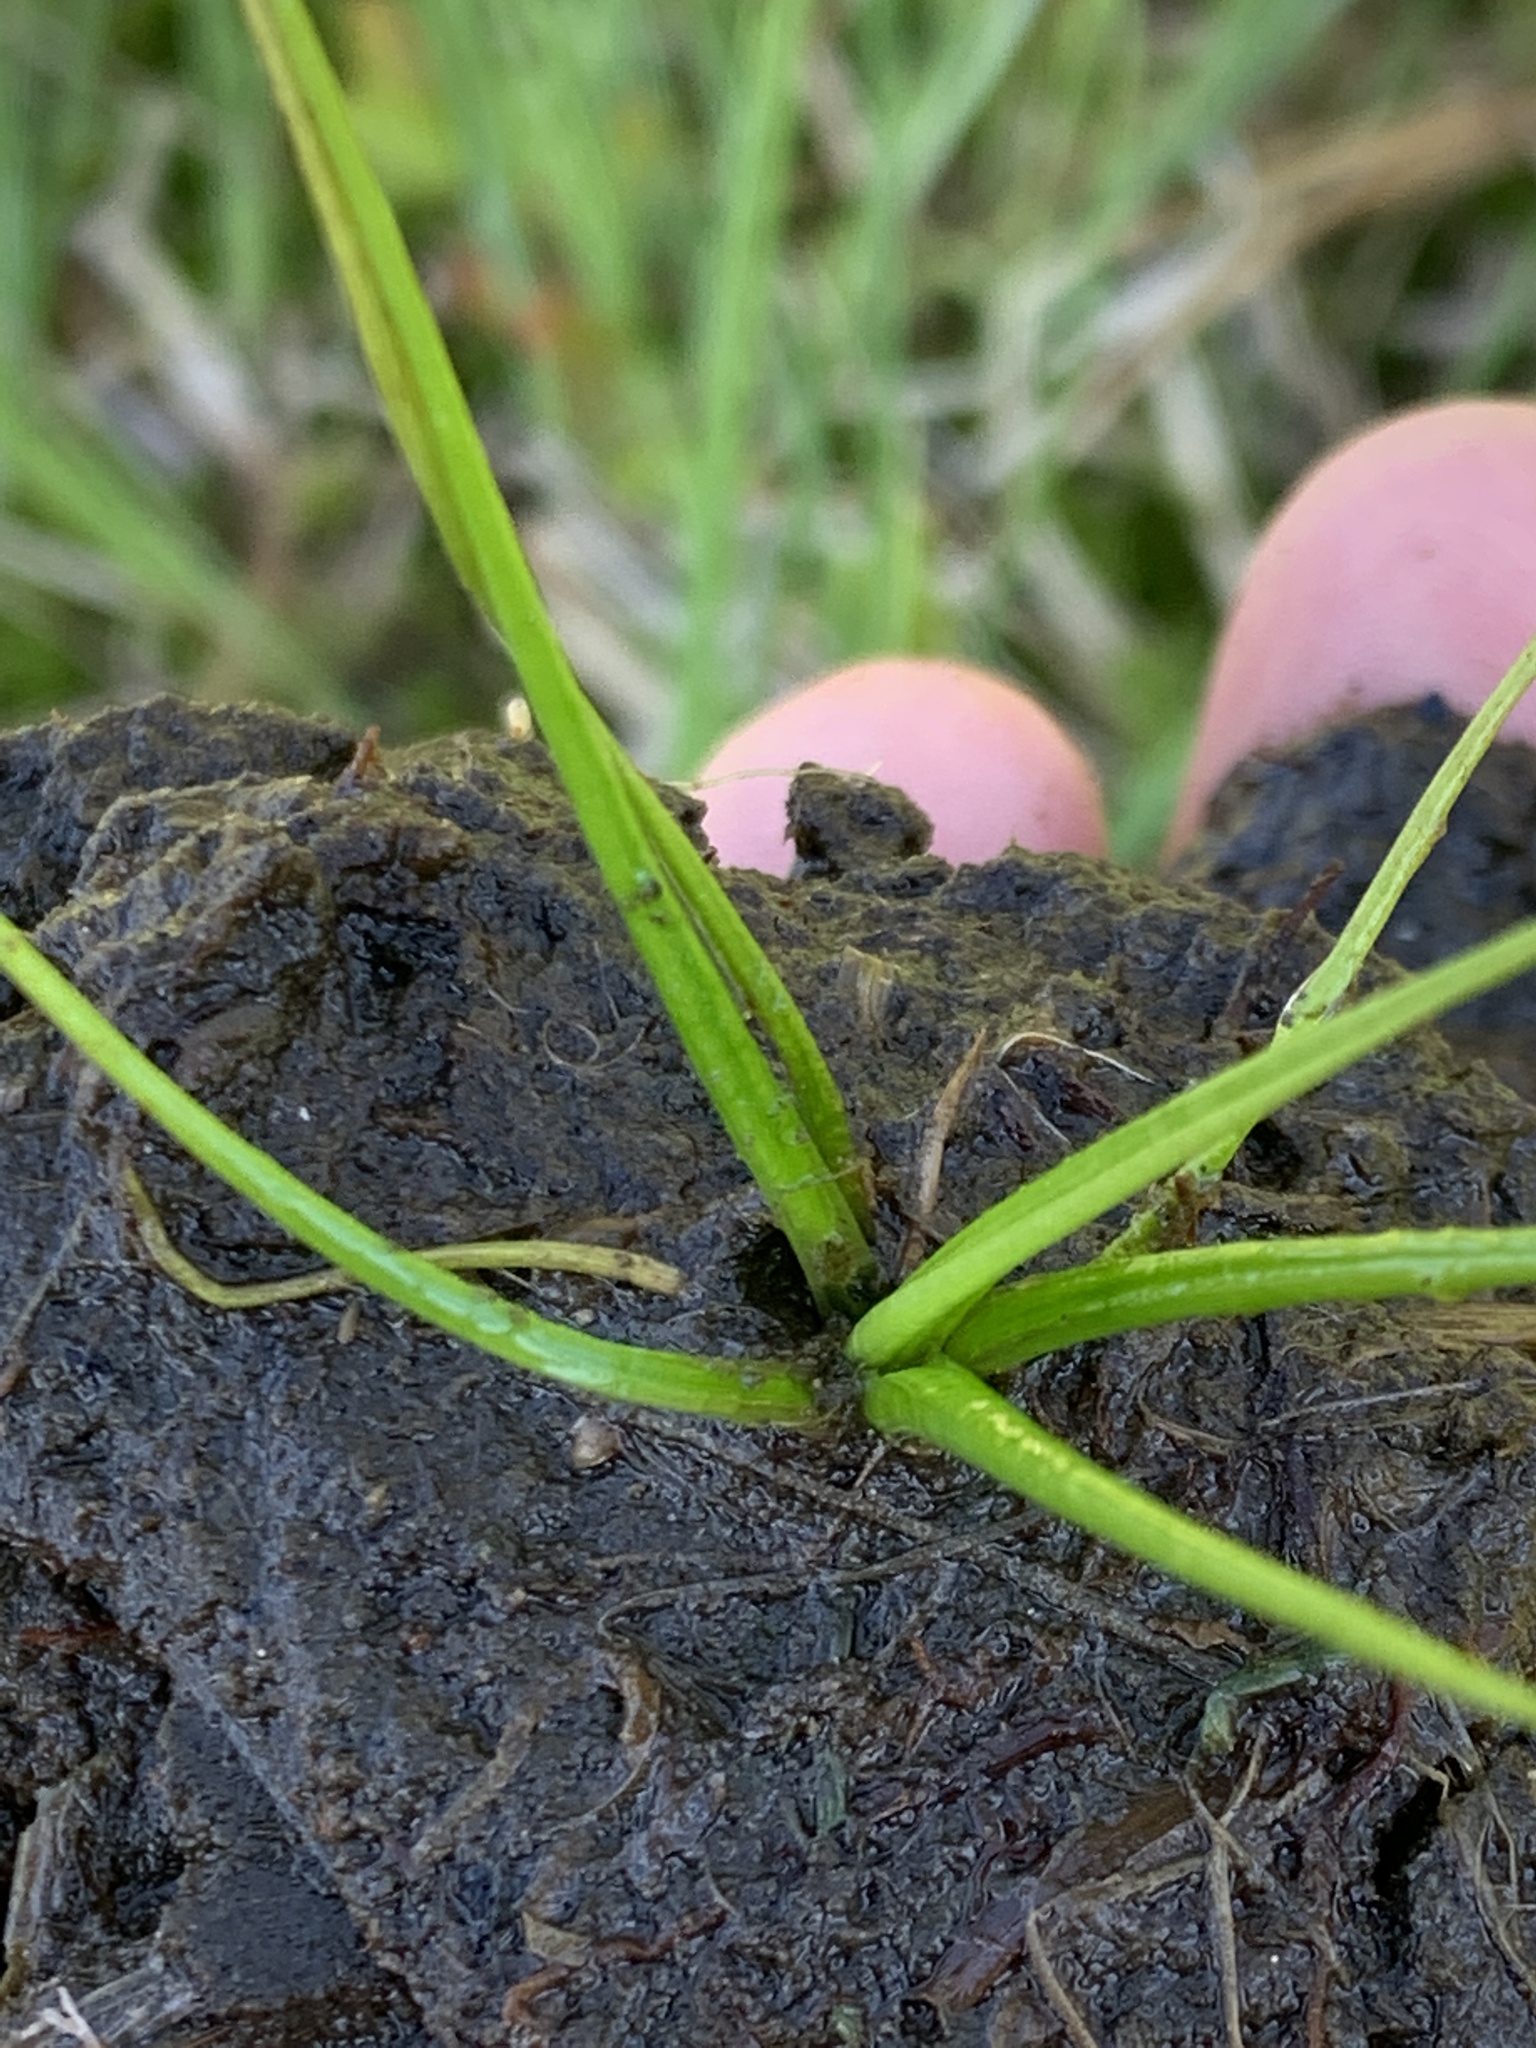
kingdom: Plantae
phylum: Tracheophyta
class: Lycopodiopsida
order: Isoetales
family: Isoetaceae
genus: Isoetes
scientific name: Isoetes bolanderi
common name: Bolander's quillwort
